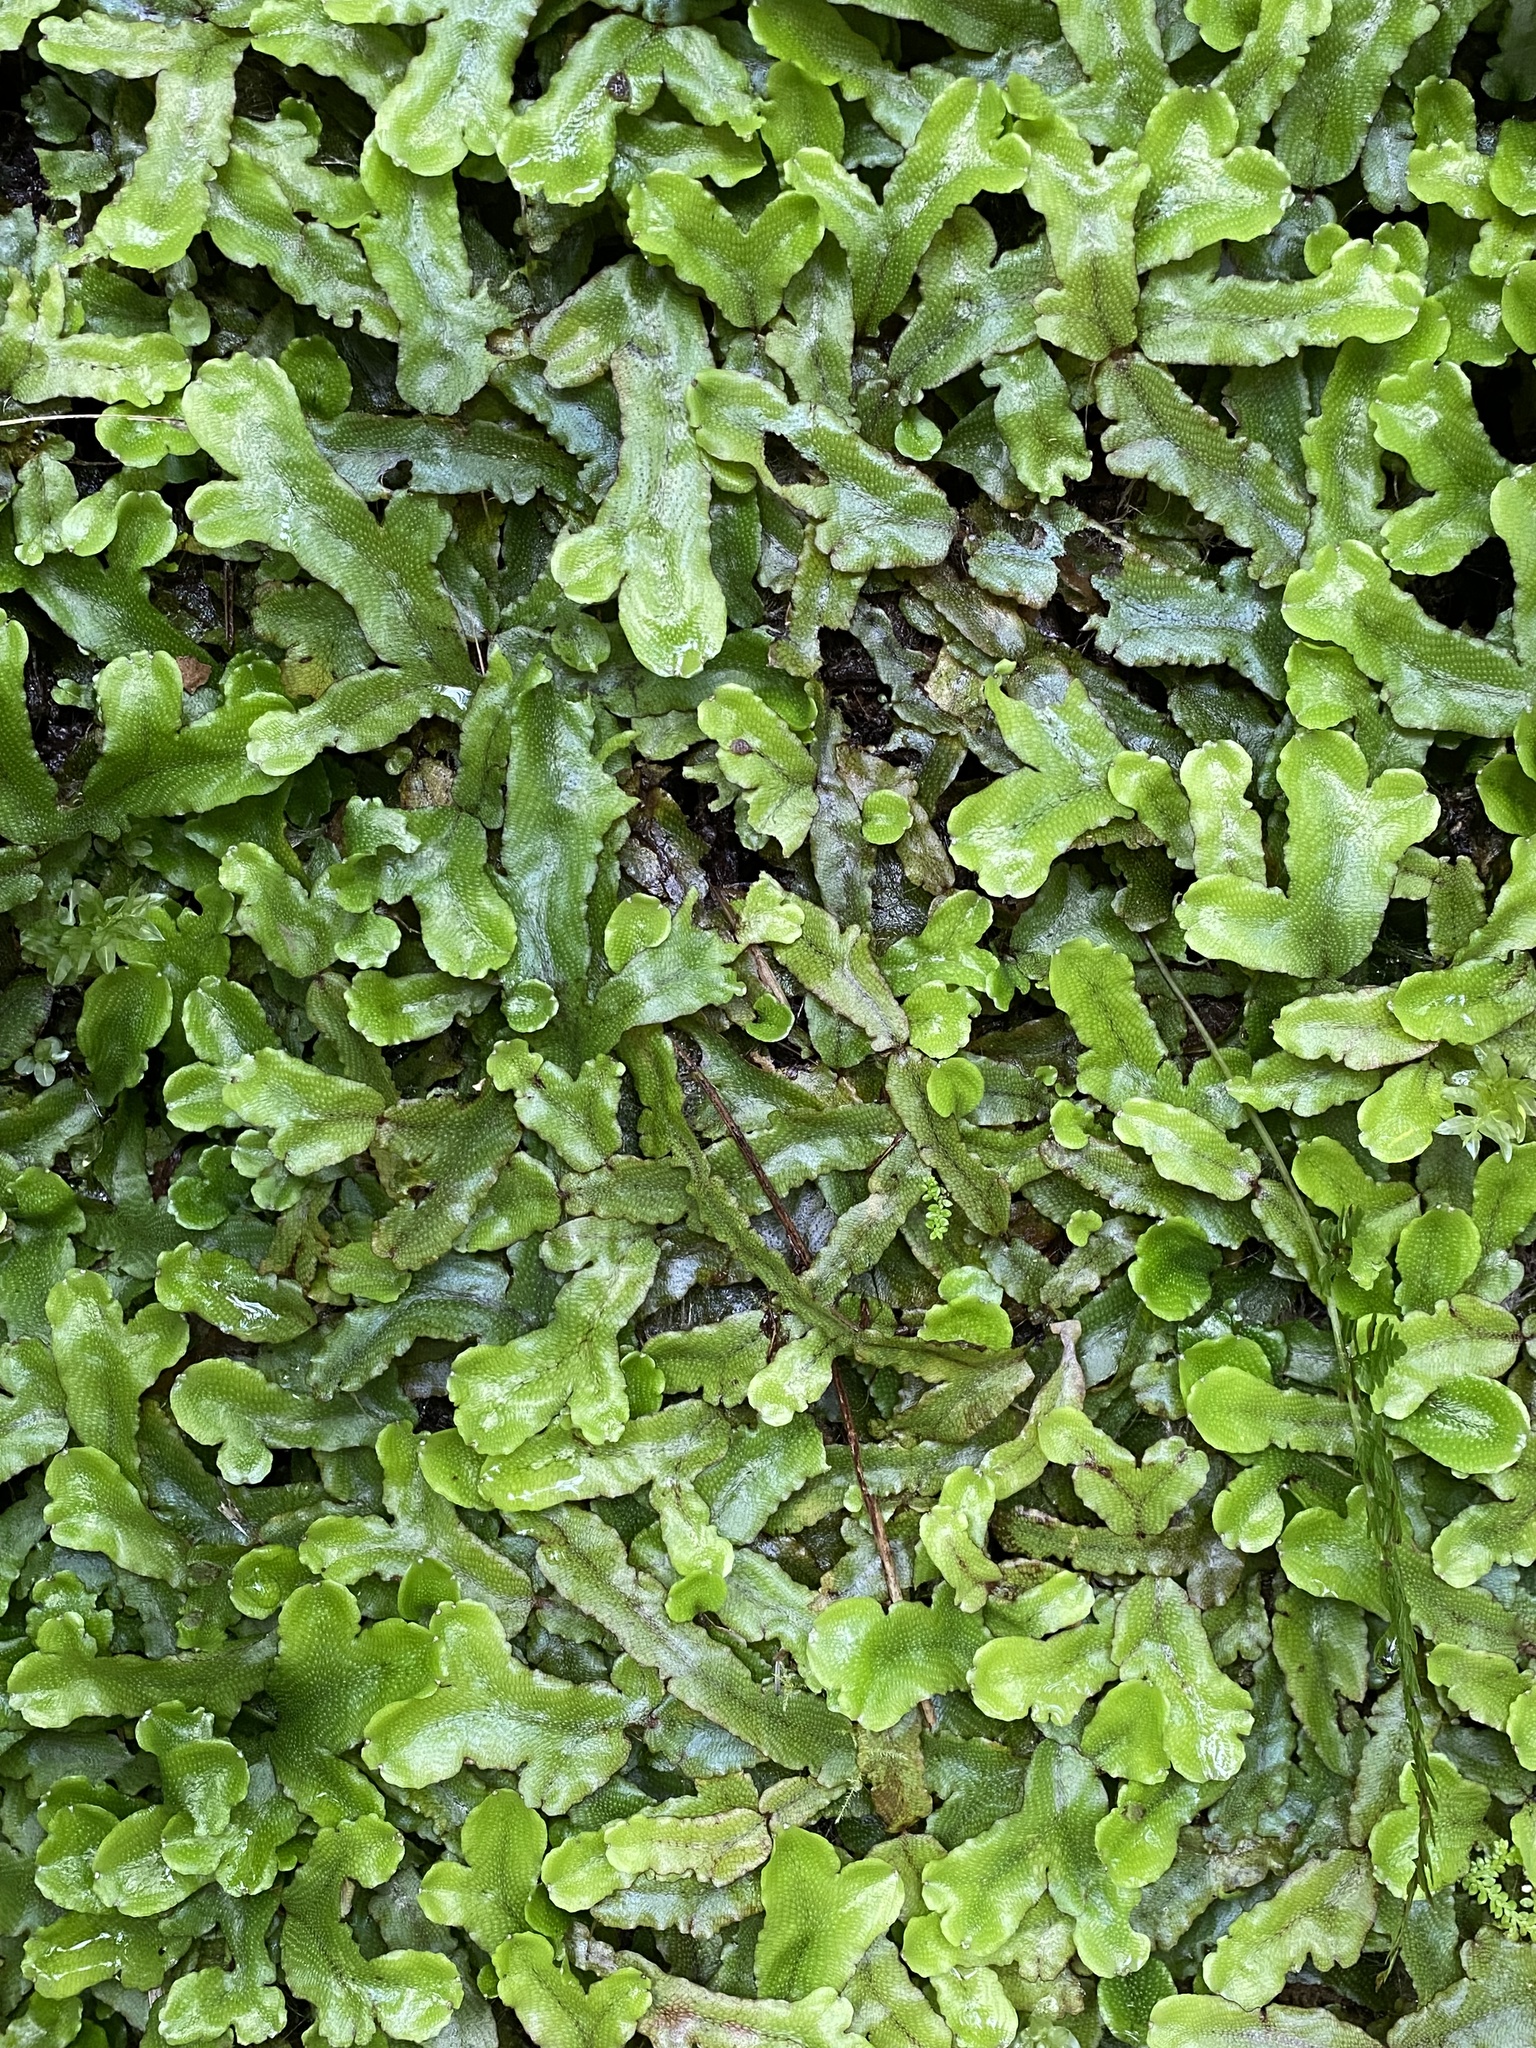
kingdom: Plantae
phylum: Marchantiophyta
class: Marchantiopsida
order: Marchantiales
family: Conocephalaceae
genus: Conocephalum
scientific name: Conocephalum conicum
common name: Great scented liverwort
